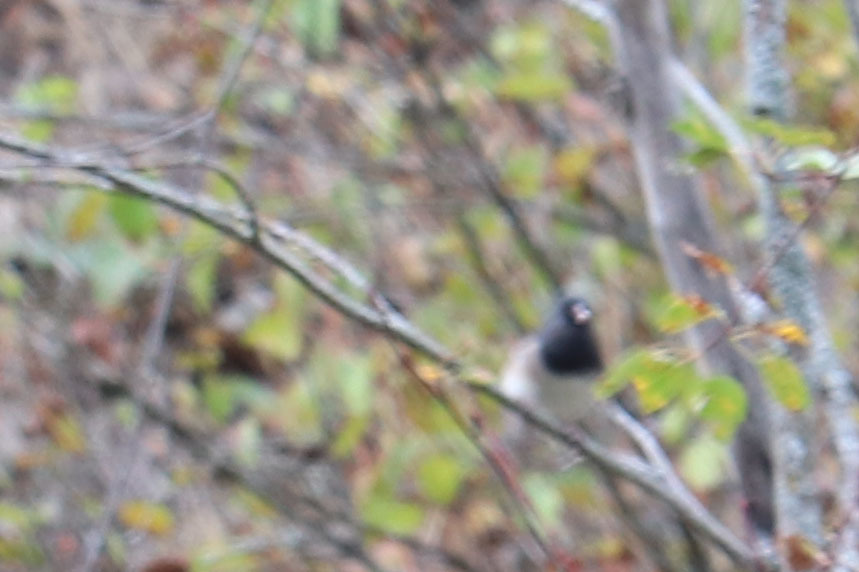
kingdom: Animalia
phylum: Chordata
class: Aves
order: Passeriformes
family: Passerellidae
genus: Junco
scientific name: Junco hyemalis
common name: Dark-eyed junco
